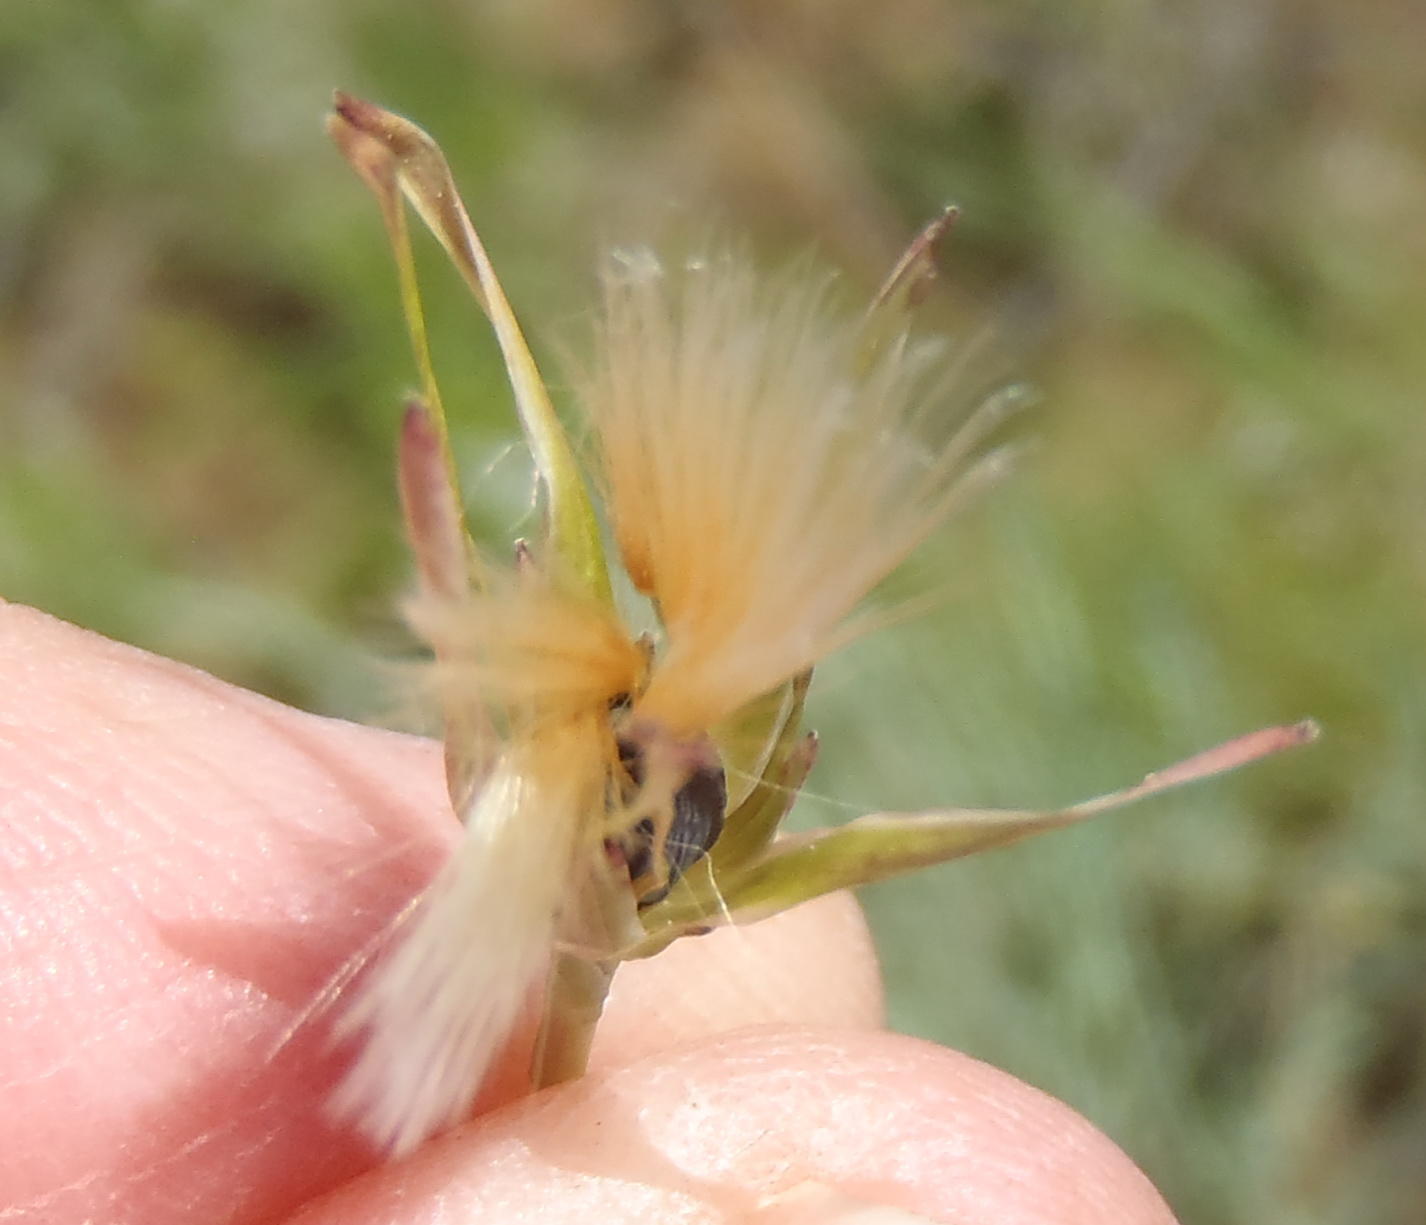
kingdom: Plantae
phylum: Tracheophyta
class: Magnoliopsida
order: Asterales
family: Asteraceae
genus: Lactuca
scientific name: Lactuca inermis
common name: Wild lettuce
